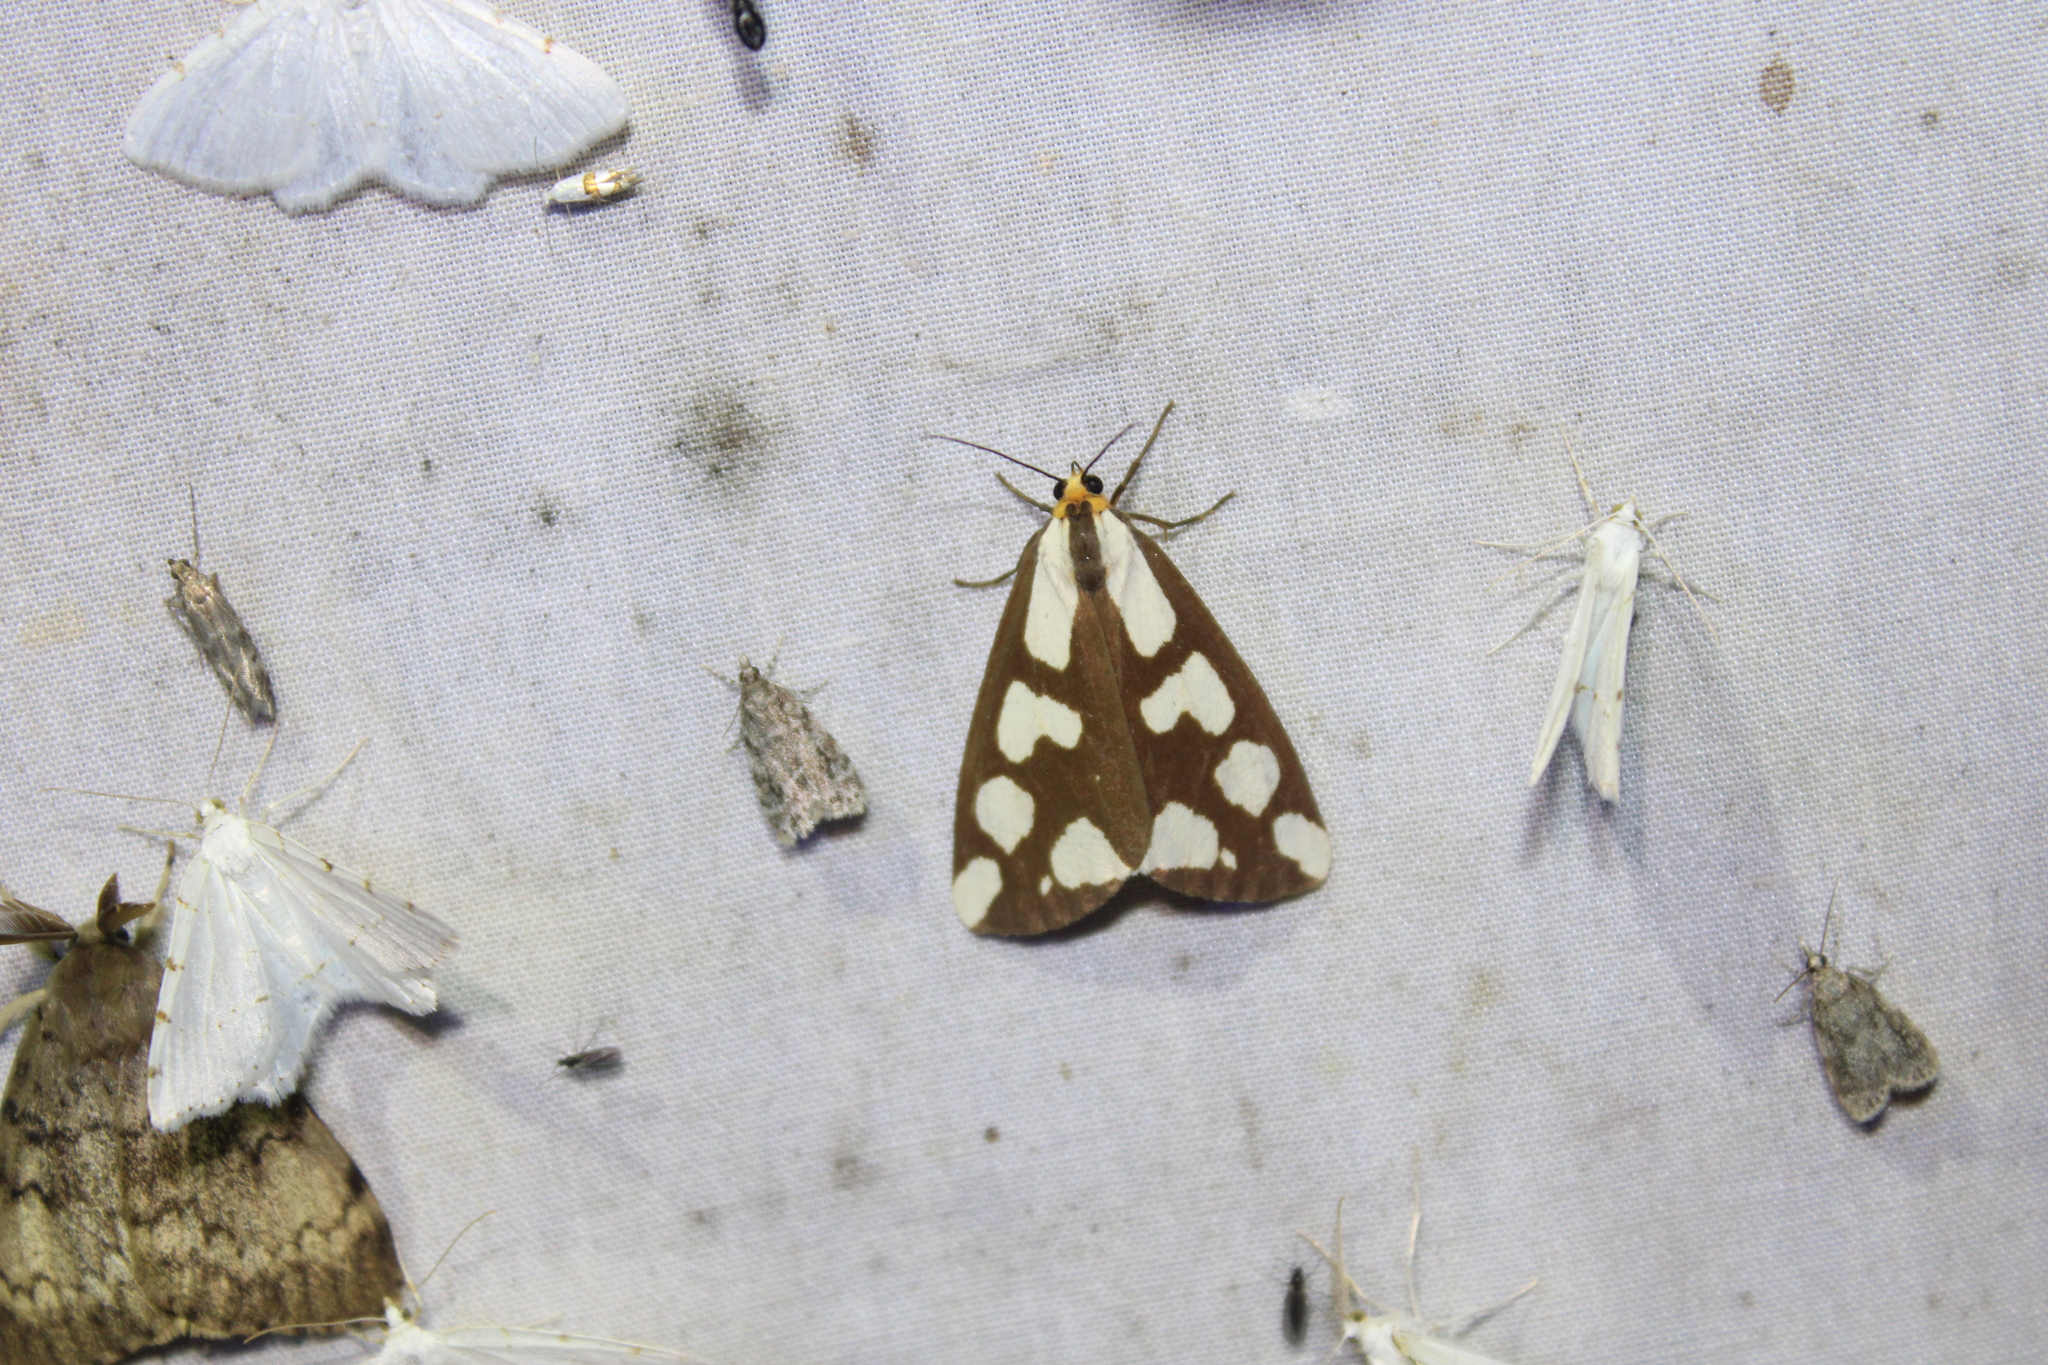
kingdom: Animalia
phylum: Arthropoda
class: Insecta
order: Lepidoptera
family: Erebidae
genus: Haploa
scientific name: Haploa confusa
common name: Confused haploa moth
